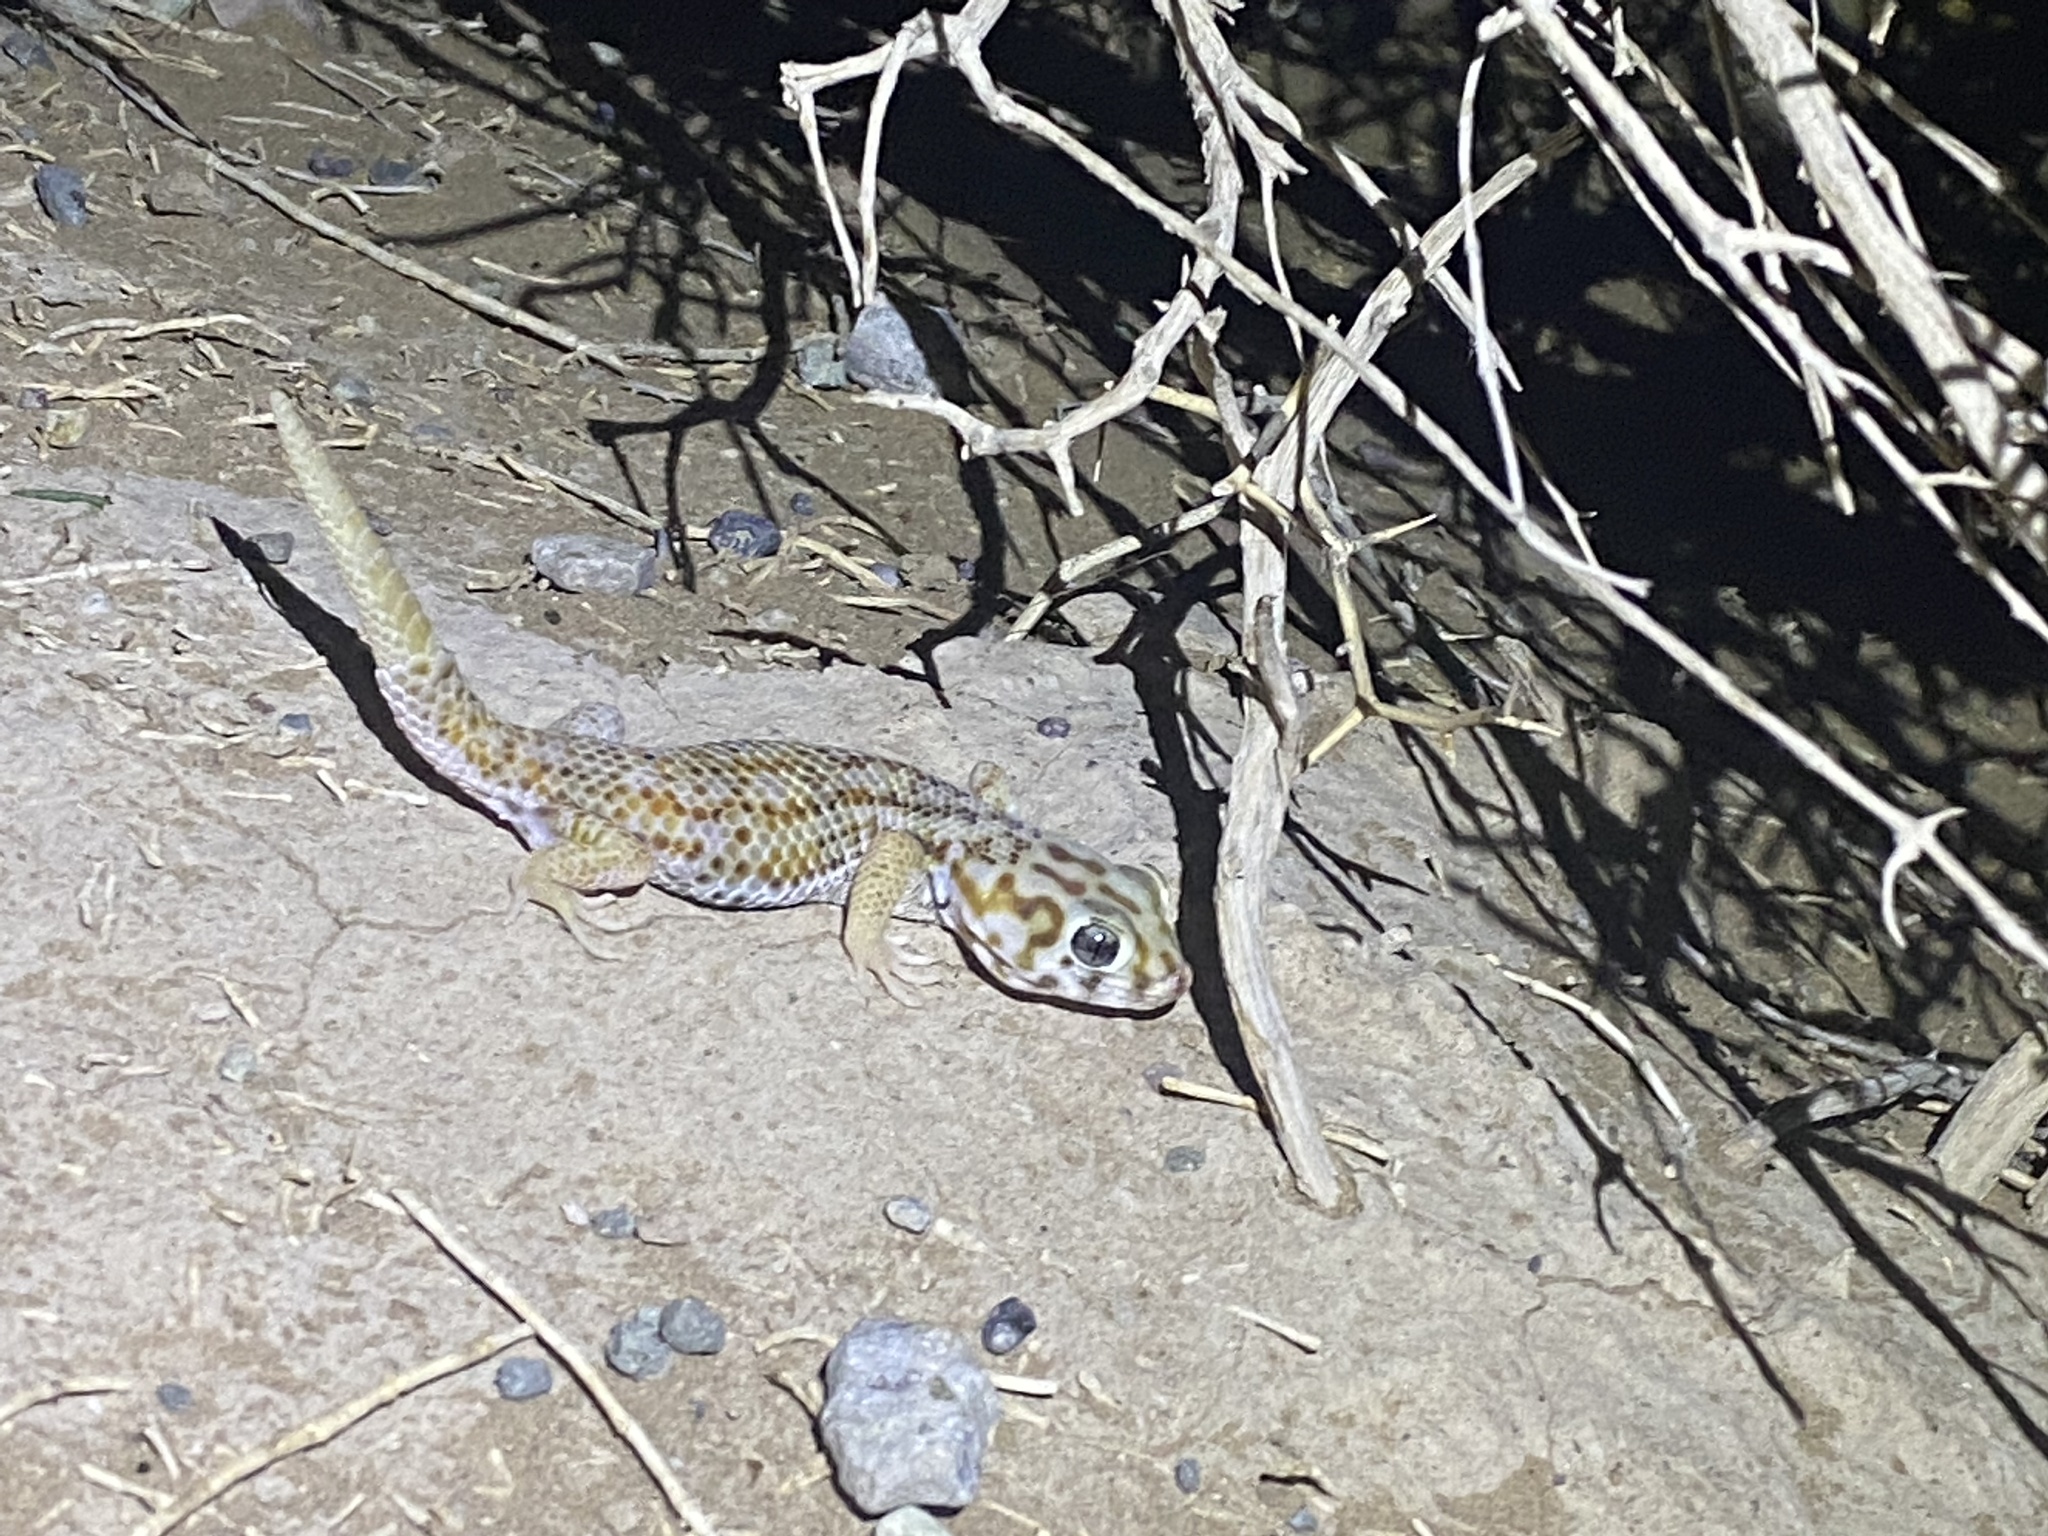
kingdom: Animalia
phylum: Chordata
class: Squamata
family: Sphaerodactylidae
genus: Teratoscincus
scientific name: Teratoscincus keyserlingii
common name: Frog-eyed gecko
